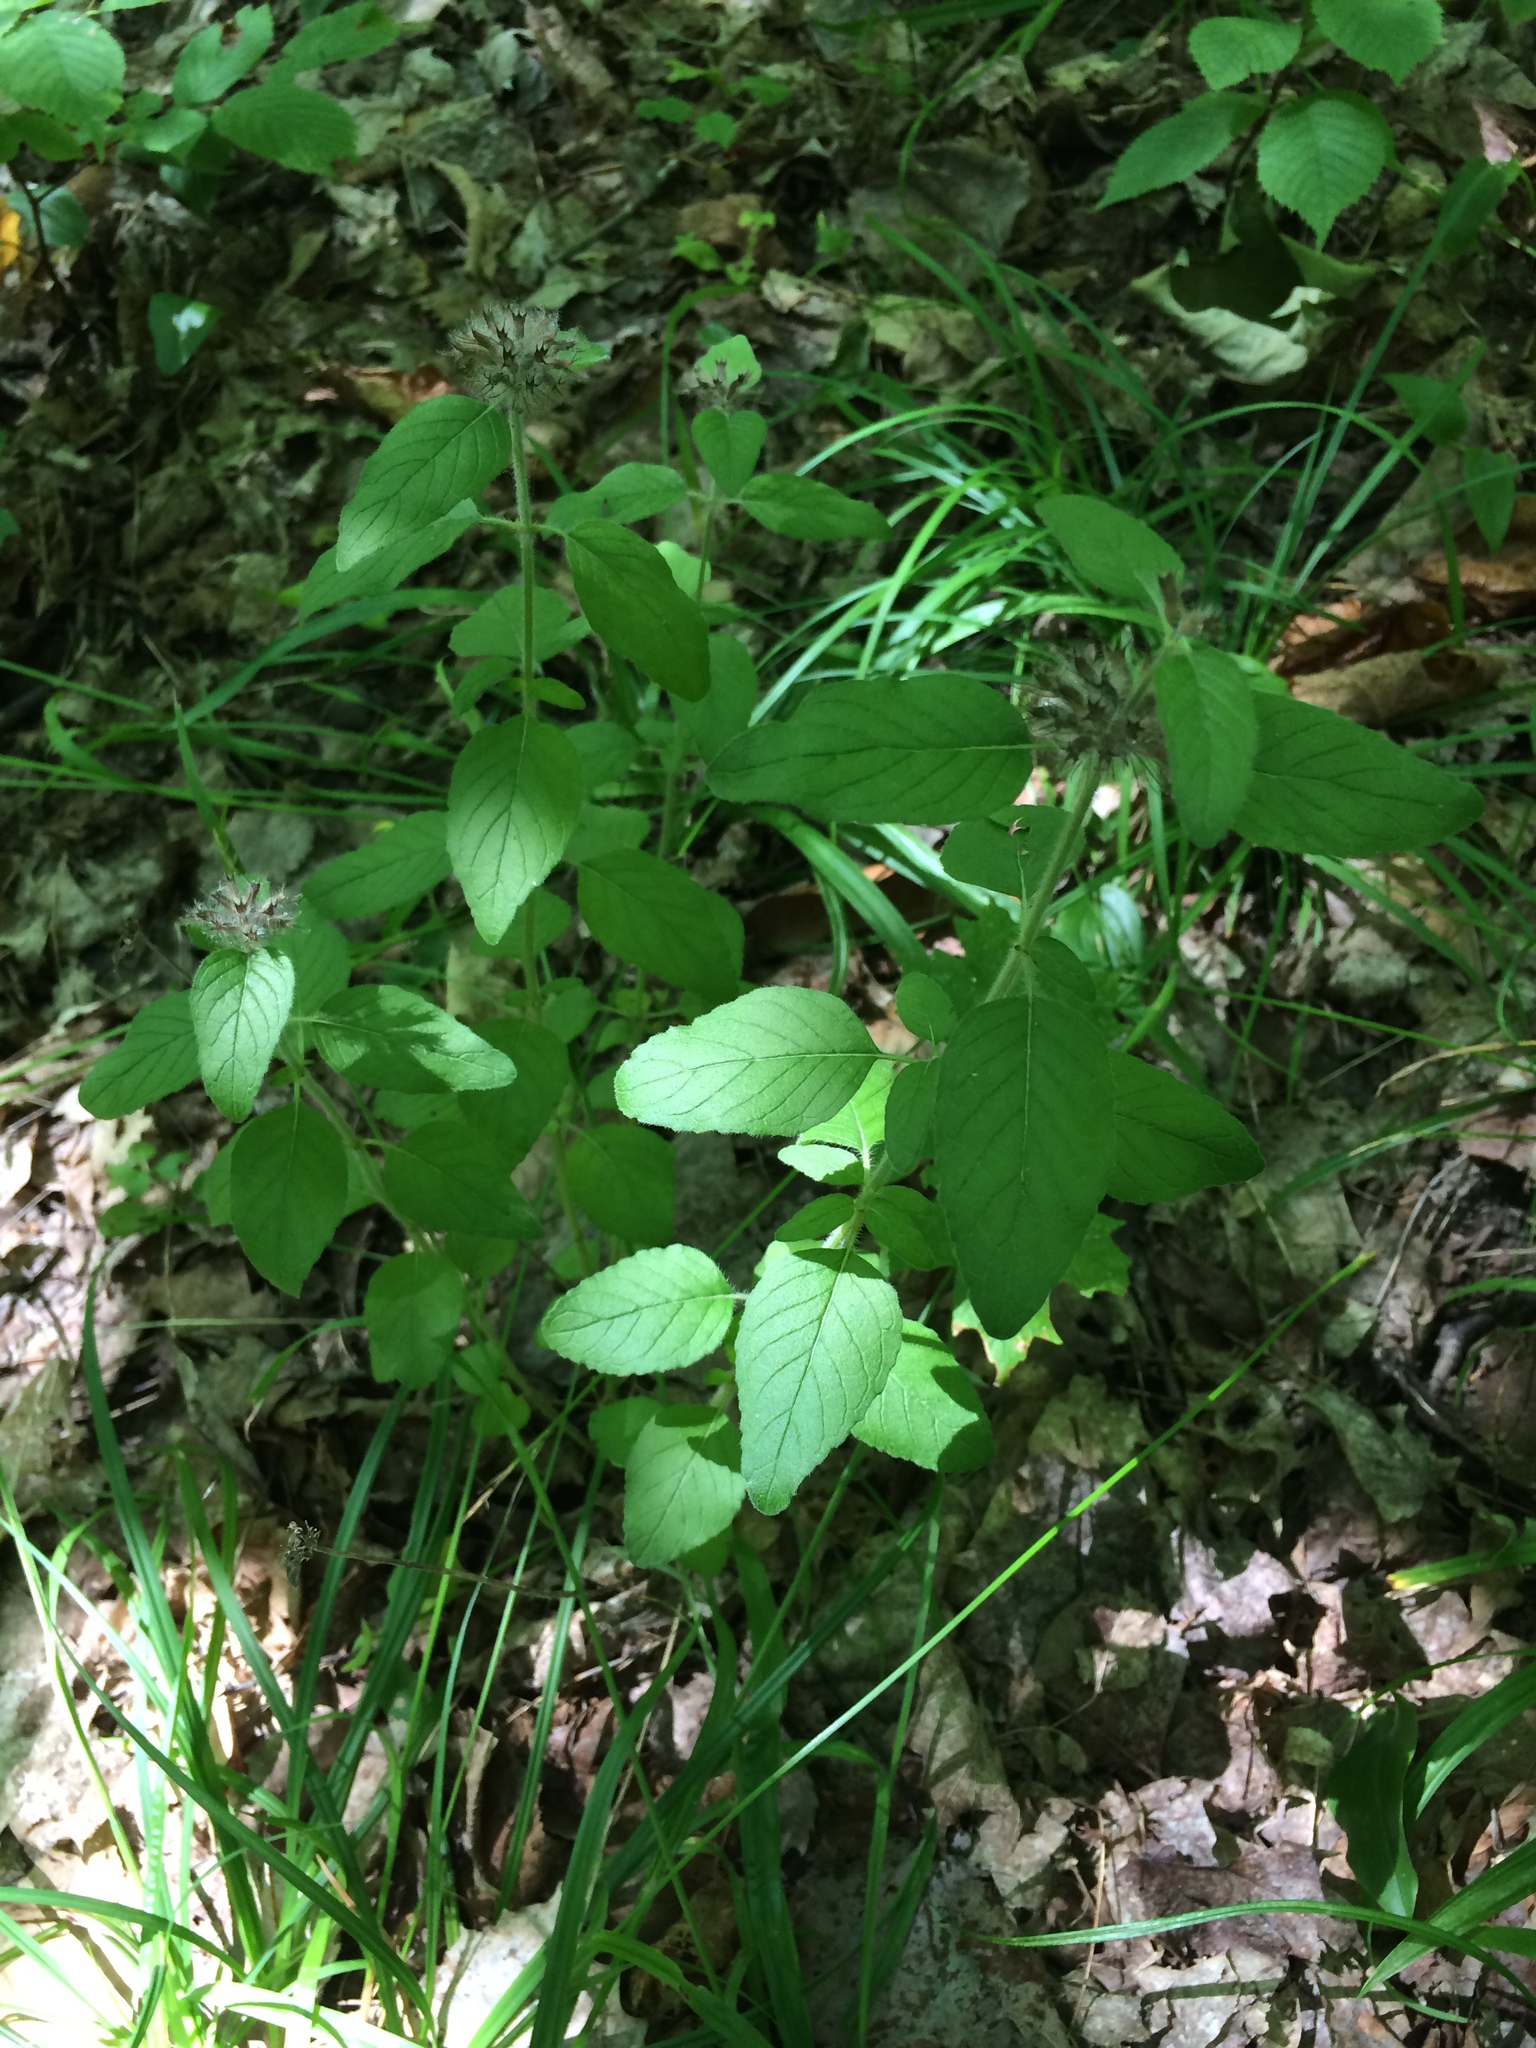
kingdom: Plantae
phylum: Tracheophyta
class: Magnoliopsida
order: Lamiales
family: Lamiaceae
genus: Clinopodium
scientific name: Clinopodium vulgare
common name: Wild basil
